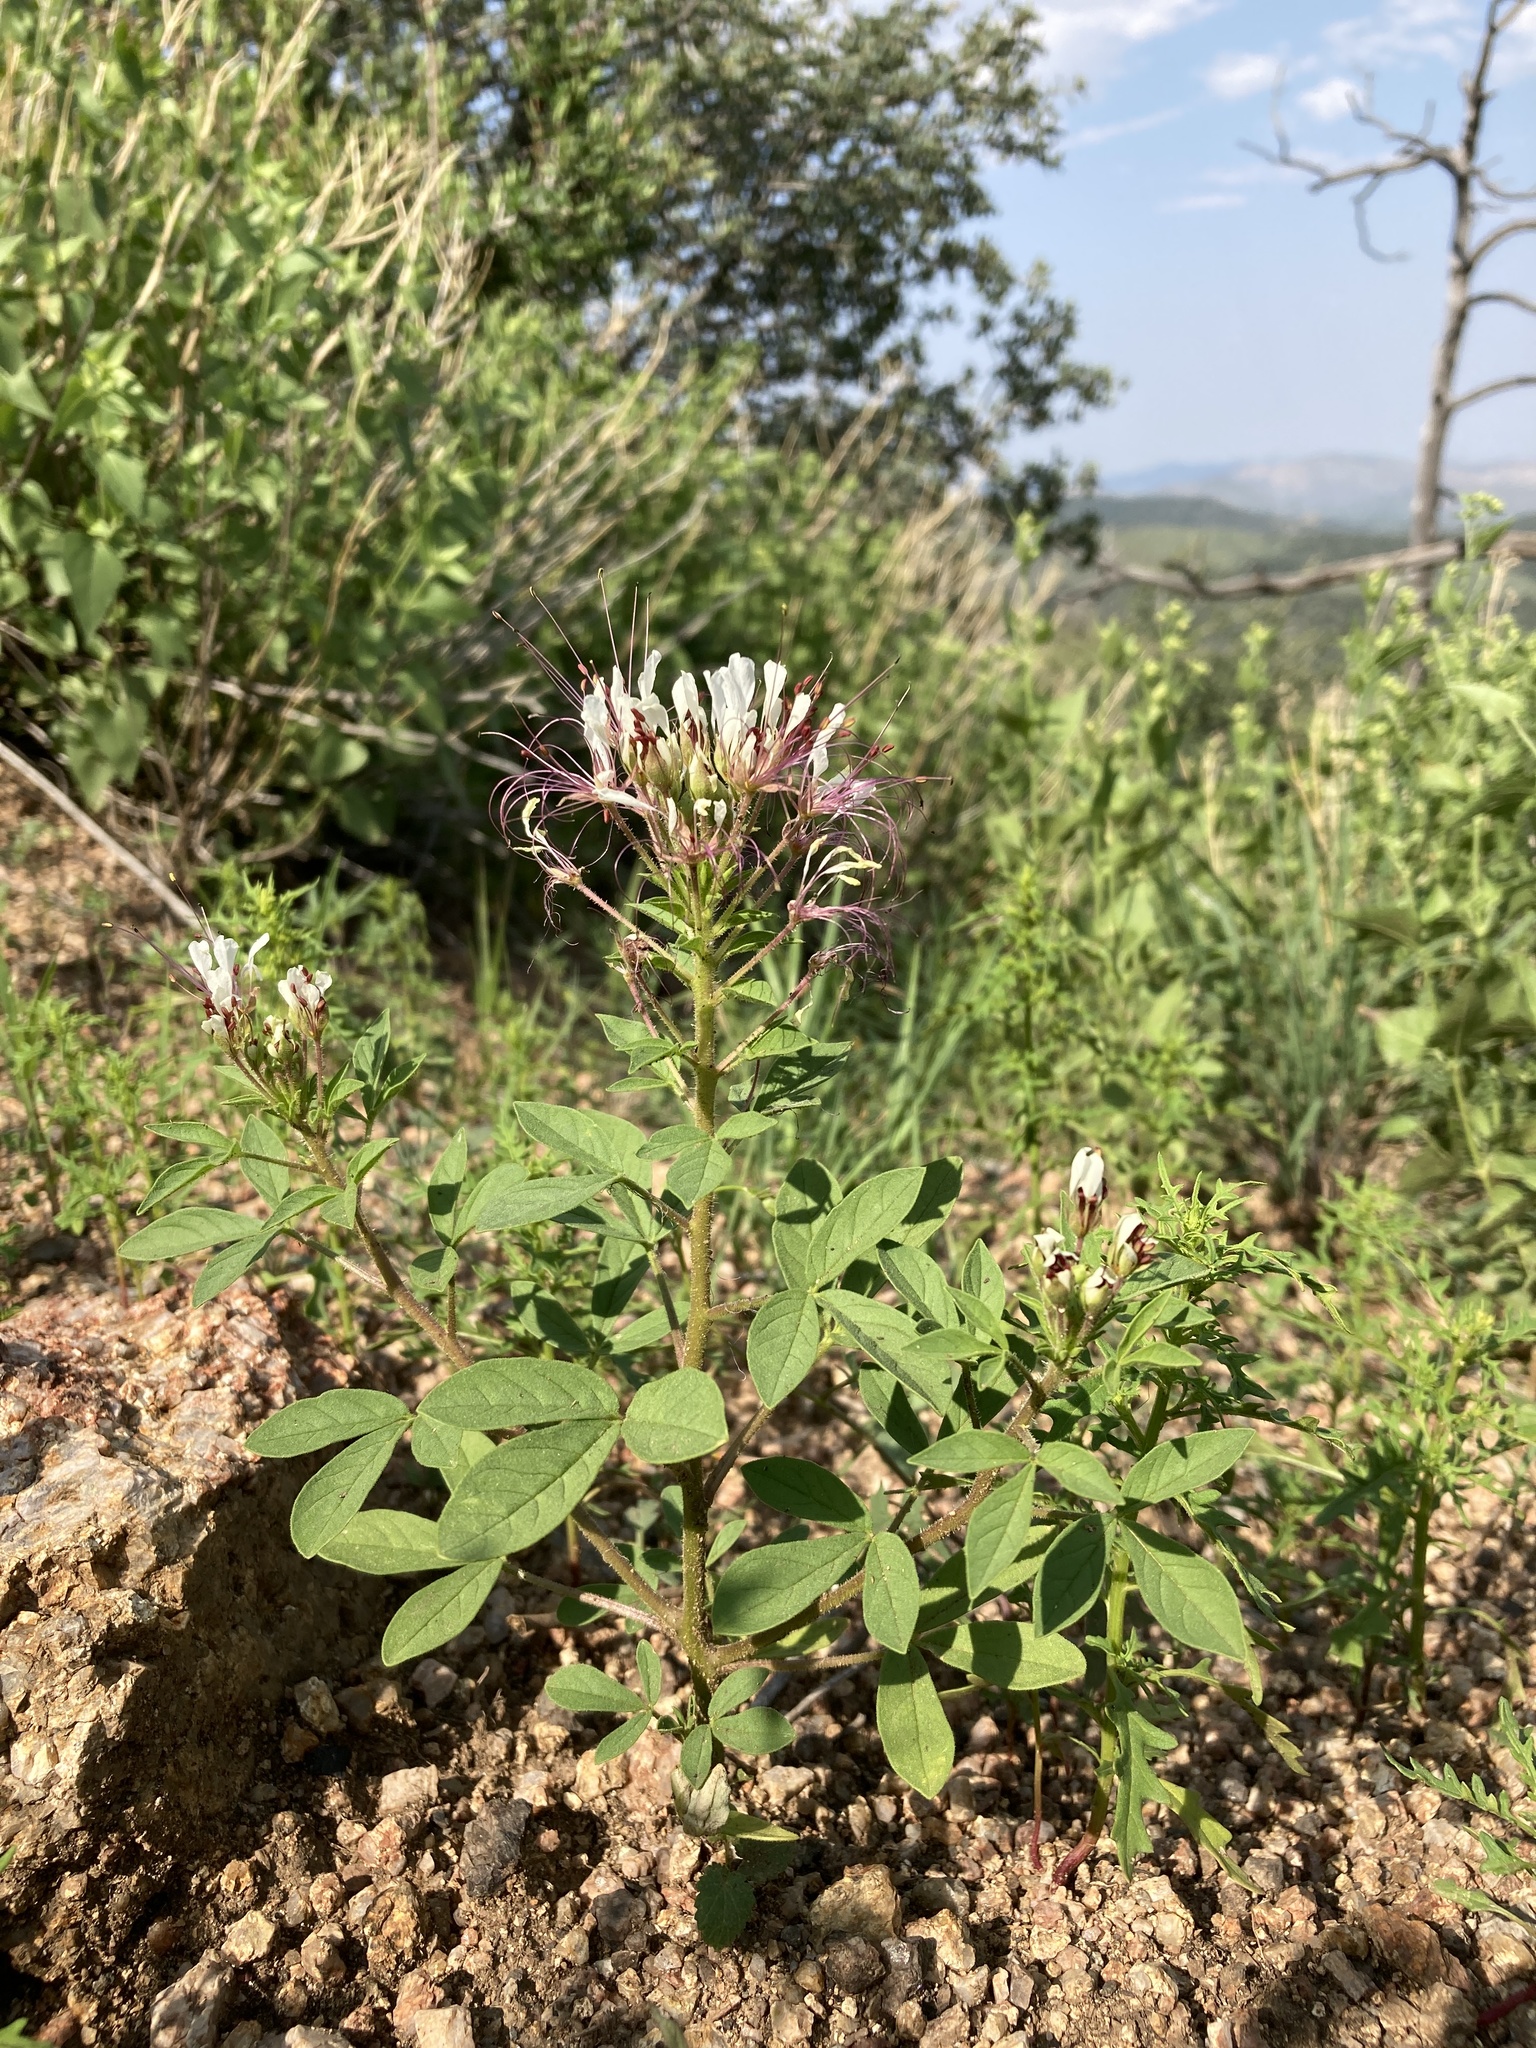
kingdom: Plantae
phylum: Tracheophyta
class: Magnoliopsida
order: Brassicales
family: Cleomaceae
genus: Polanisia
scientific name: Polanisia dodecandra
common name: Clammyweed
